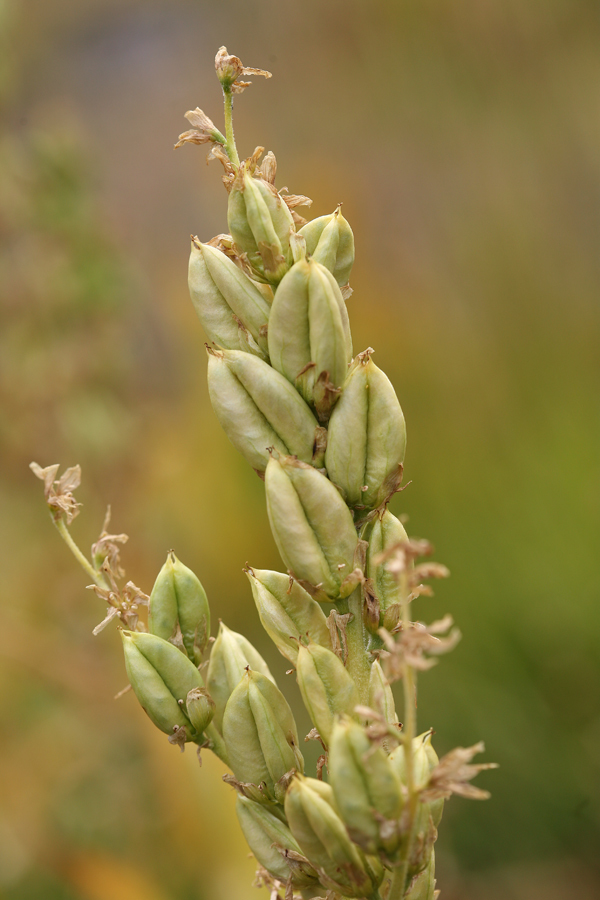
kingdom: Plantae
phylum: Tracheophyta
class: Liliopsida
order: Liliales
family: Melanthiaceae
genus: Veratrum
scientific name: Veratrum californicum
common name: California veratrum
